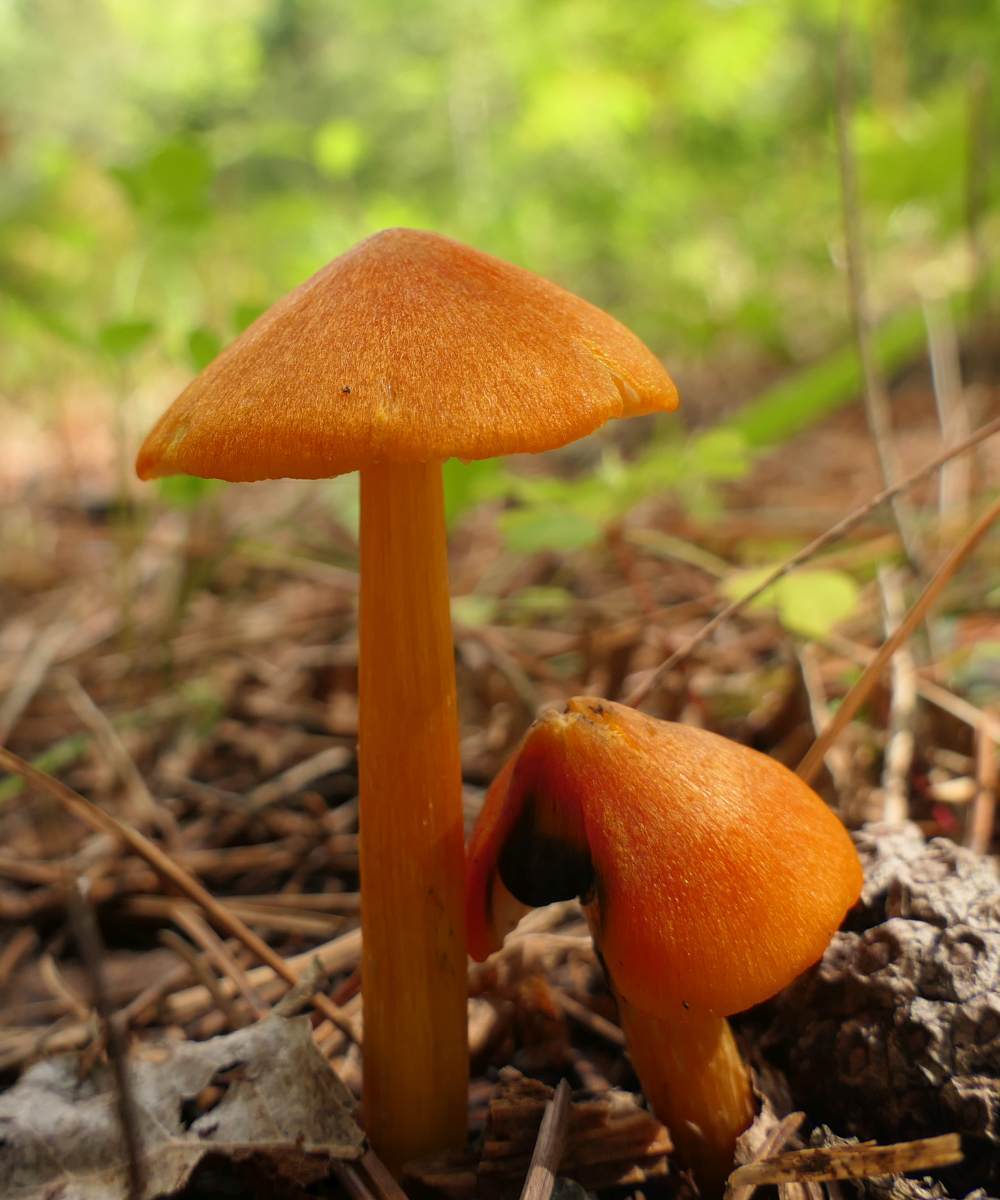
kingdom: Fungi
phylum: Basidiomycota
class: Agaricomycetes
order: Agaricales
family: Hygrophoraceae
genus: Hygrocybe
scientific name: Hygrocybe conica
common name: Blackening wax-cap
